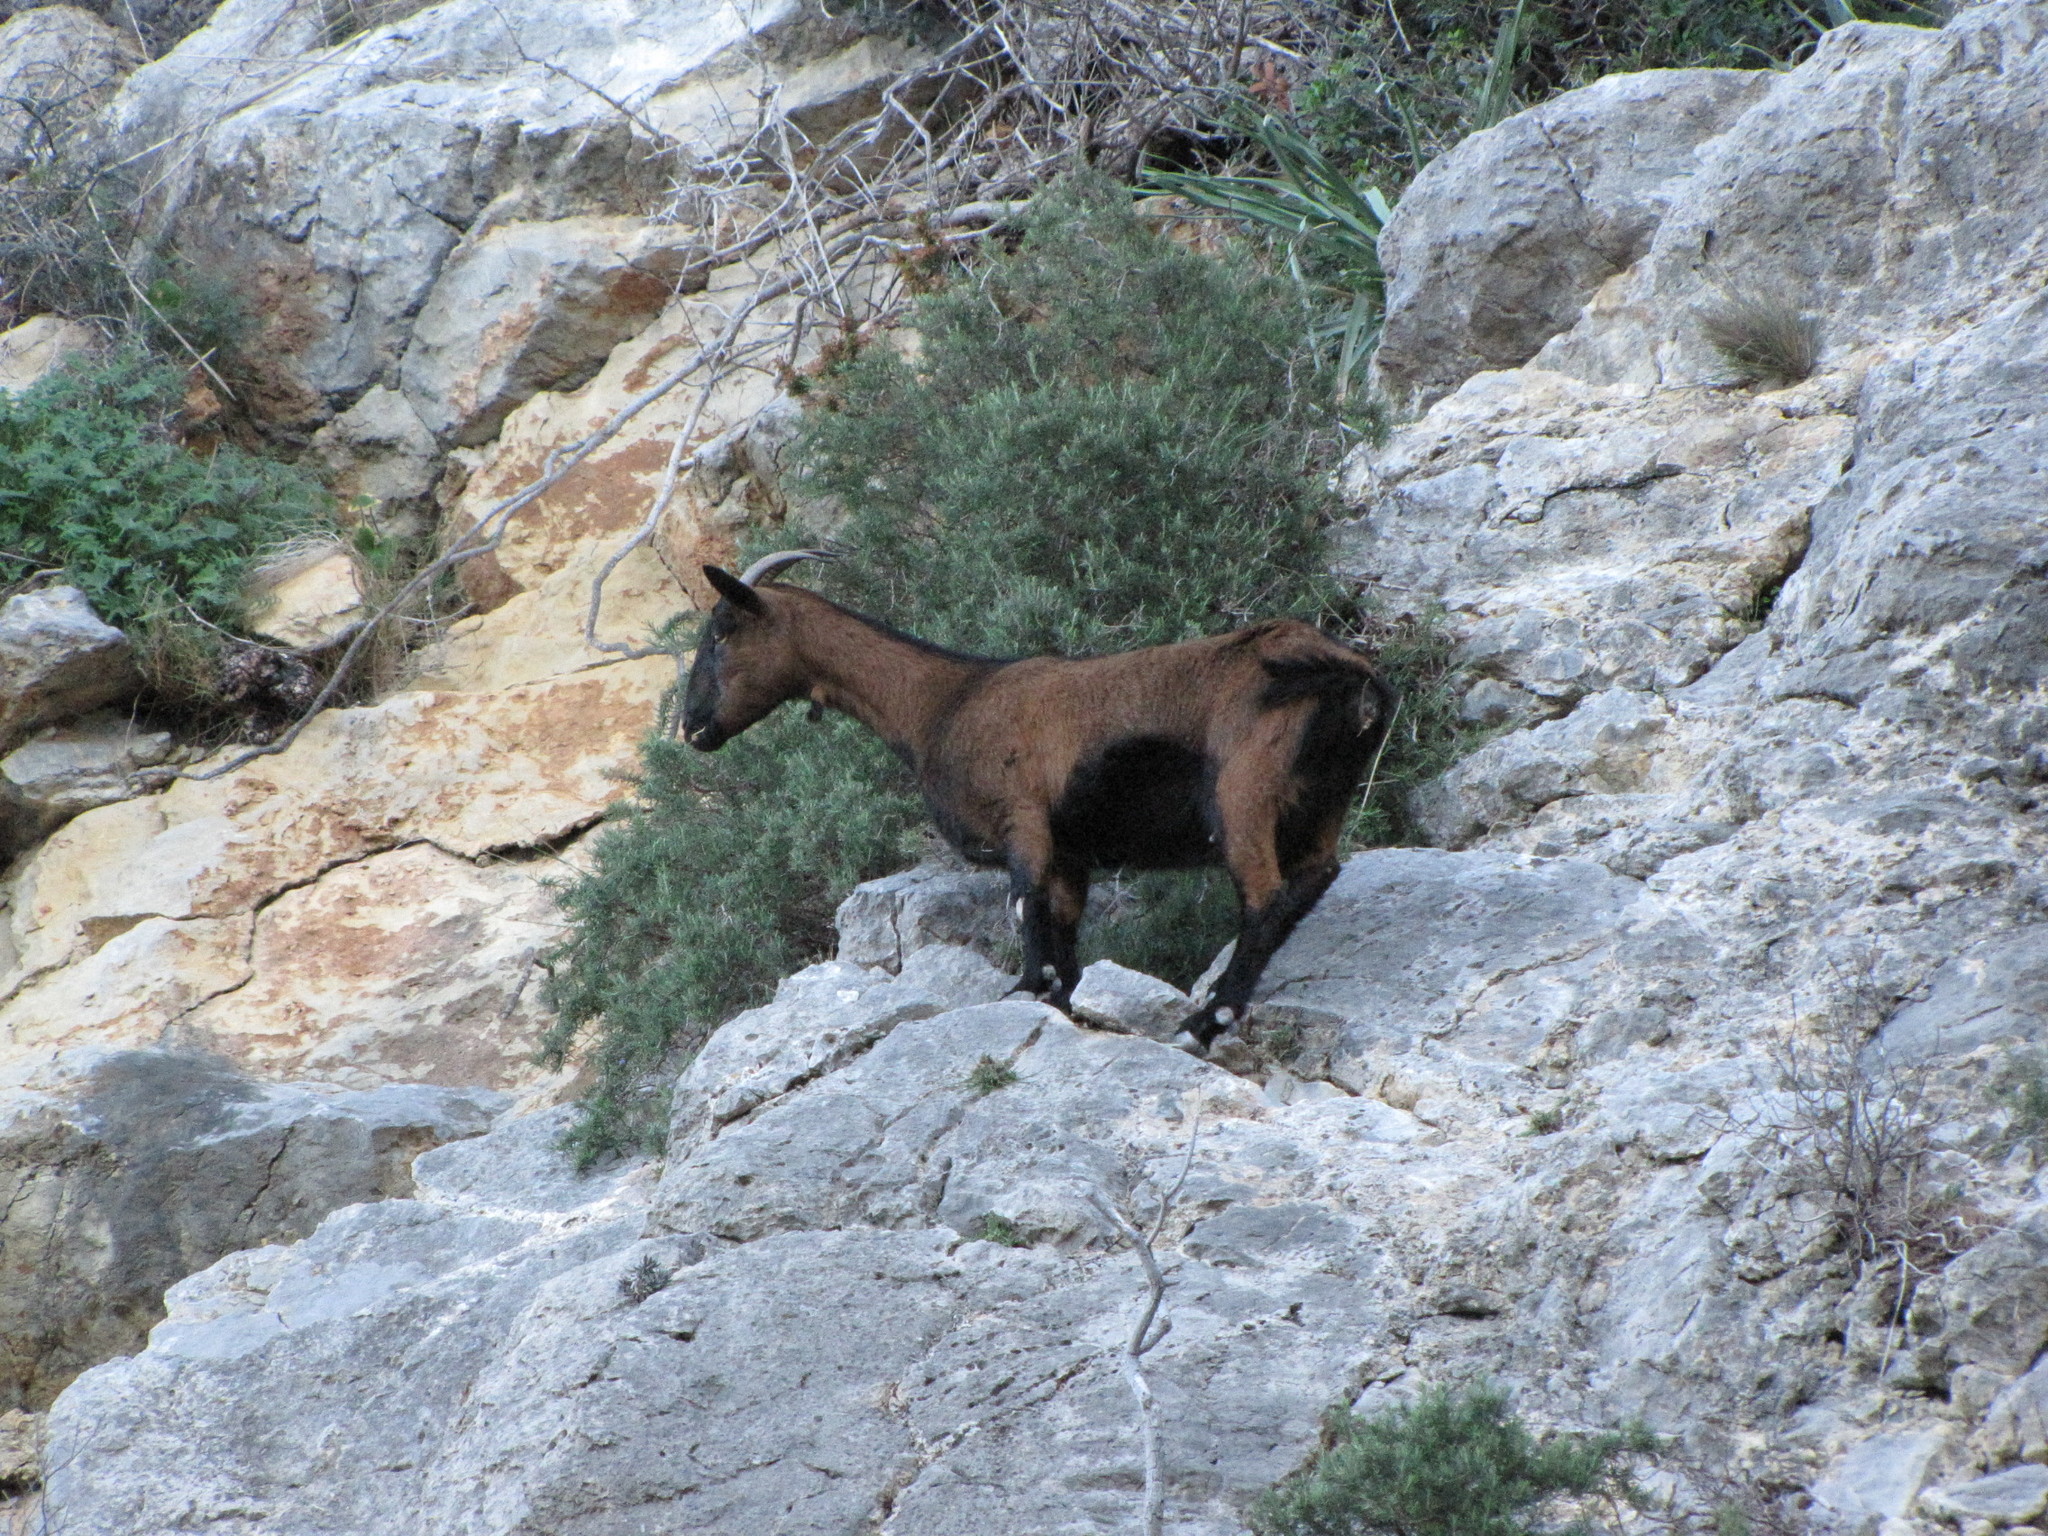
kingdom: Animalia
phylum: Chordata
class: Mammalia
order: Artiodactyla
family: Bovidae
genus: Capra
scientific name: Capra hircus
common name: Domestic goat
